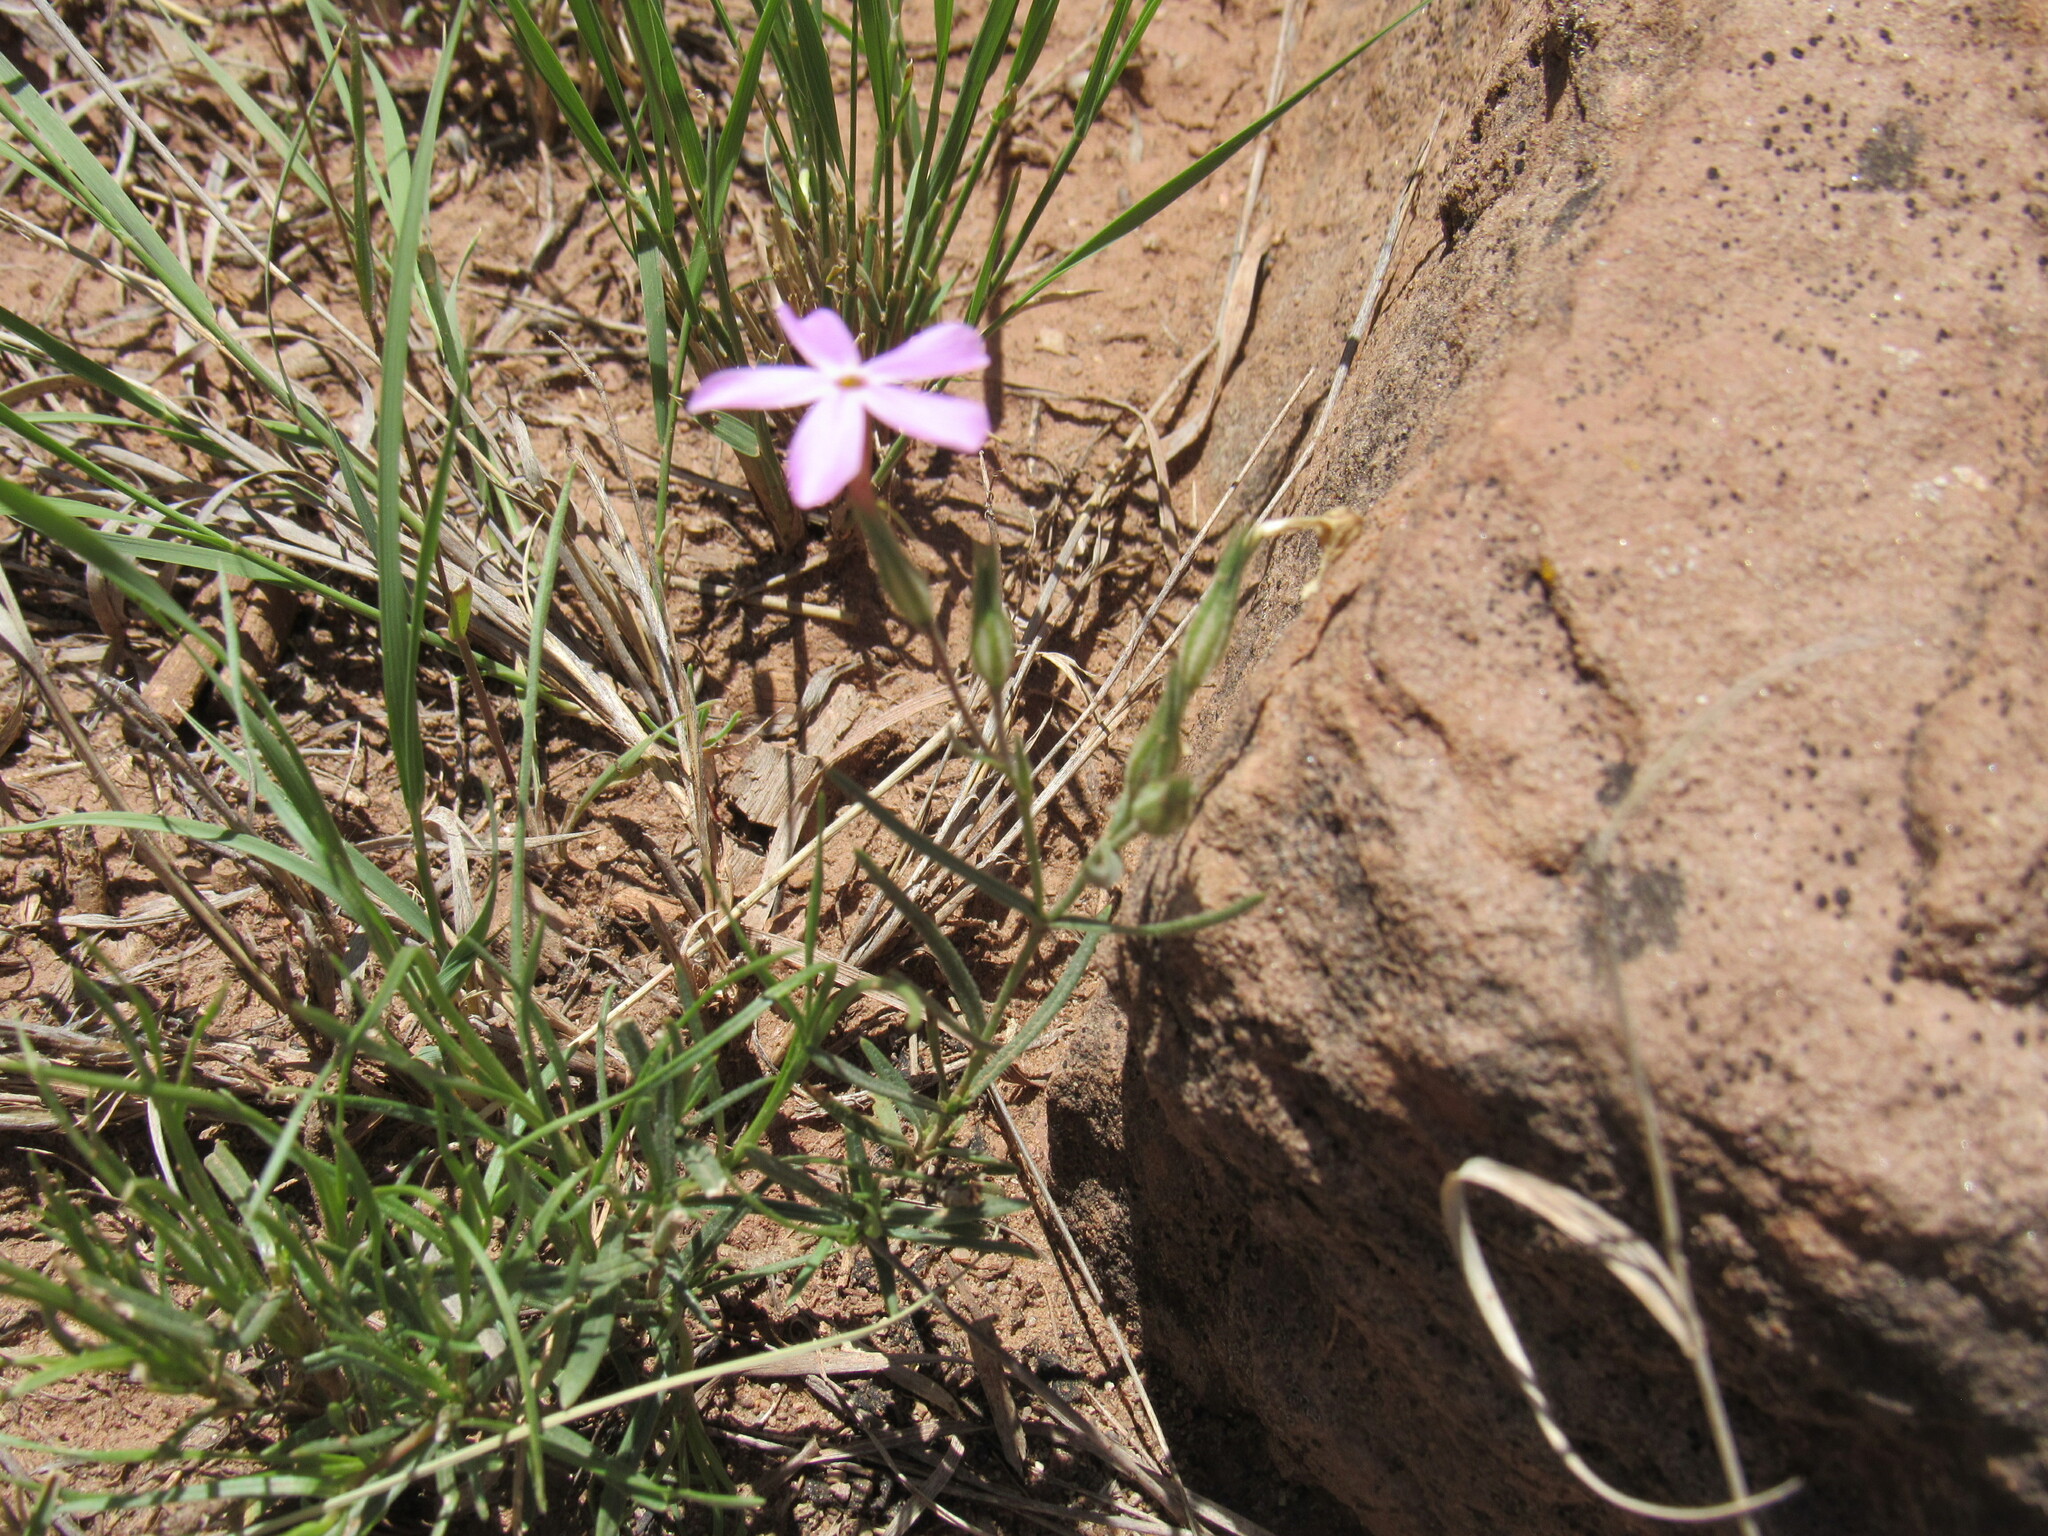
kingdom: Plantae
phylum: Tracheophyta
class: Magnoliopsida
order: Ericales
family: Polemoniaceae
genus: Phlox
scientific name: Phlox longifolia
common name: Longleaf phlox
